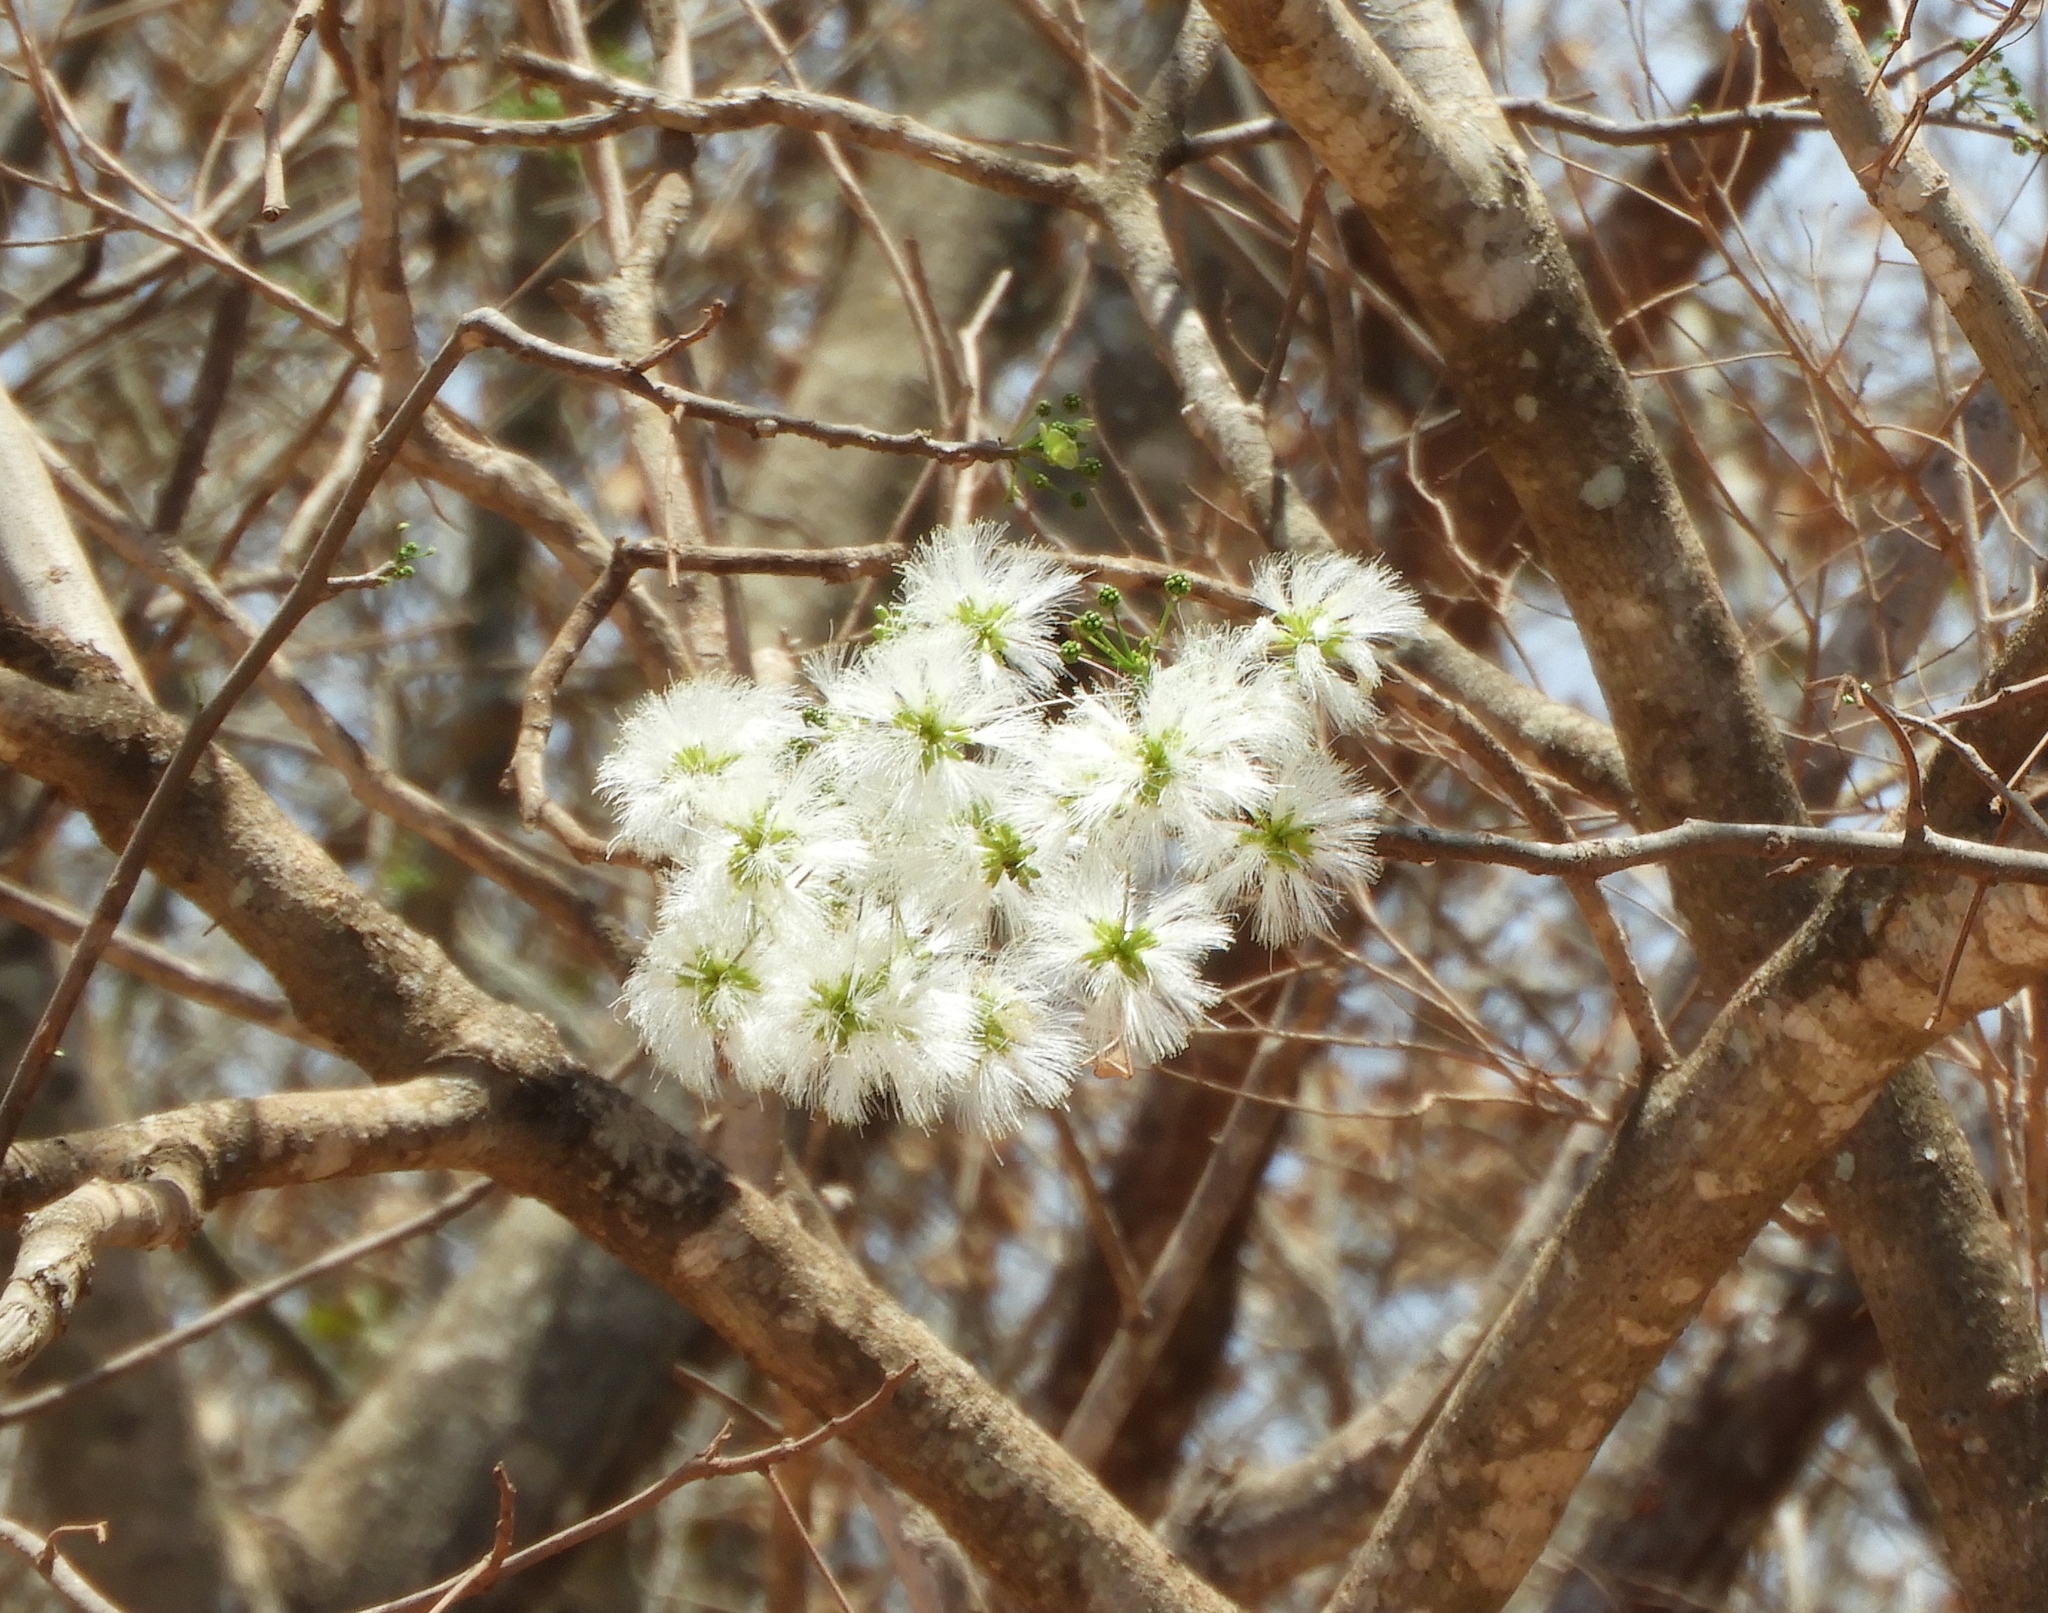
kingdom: Plantae
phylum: Tracheophyta
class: Magnoliopsida
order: Fabales
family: Fabaceae
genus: Albizia
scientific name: Albizia occidentalis
